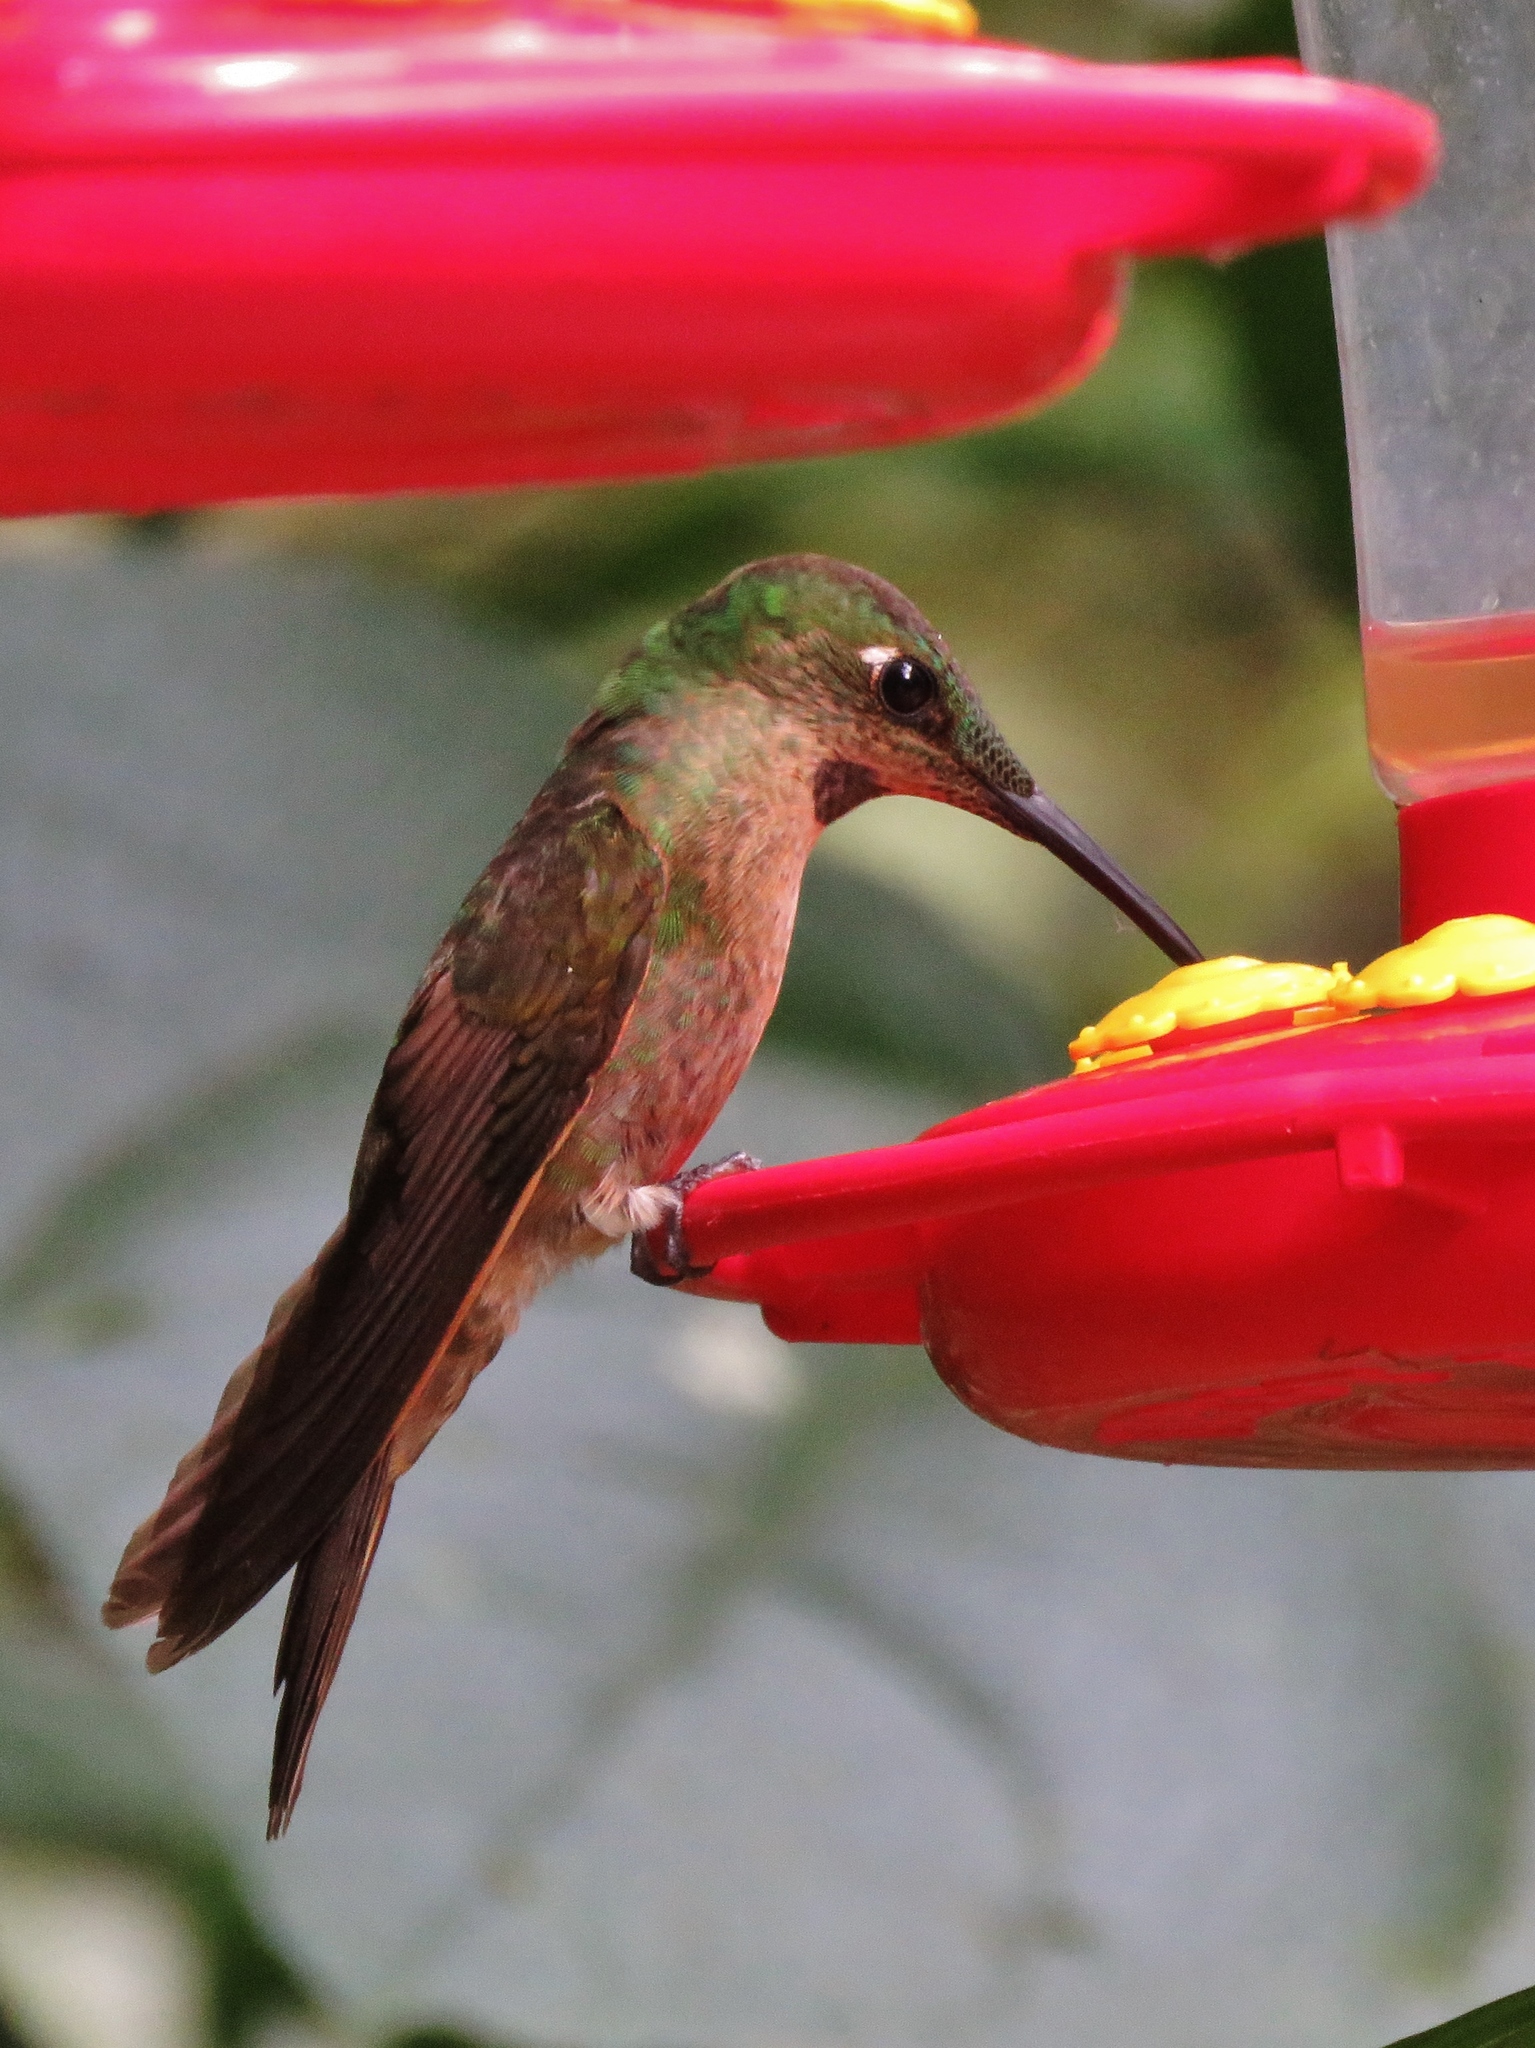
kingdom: Animalia
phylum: Chordata
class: Aves
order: Apodiformes
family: Trochilidae
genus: Heliodoxa
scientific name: Heliodoxa rubinoides
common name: Fawn-breasted brilliant
